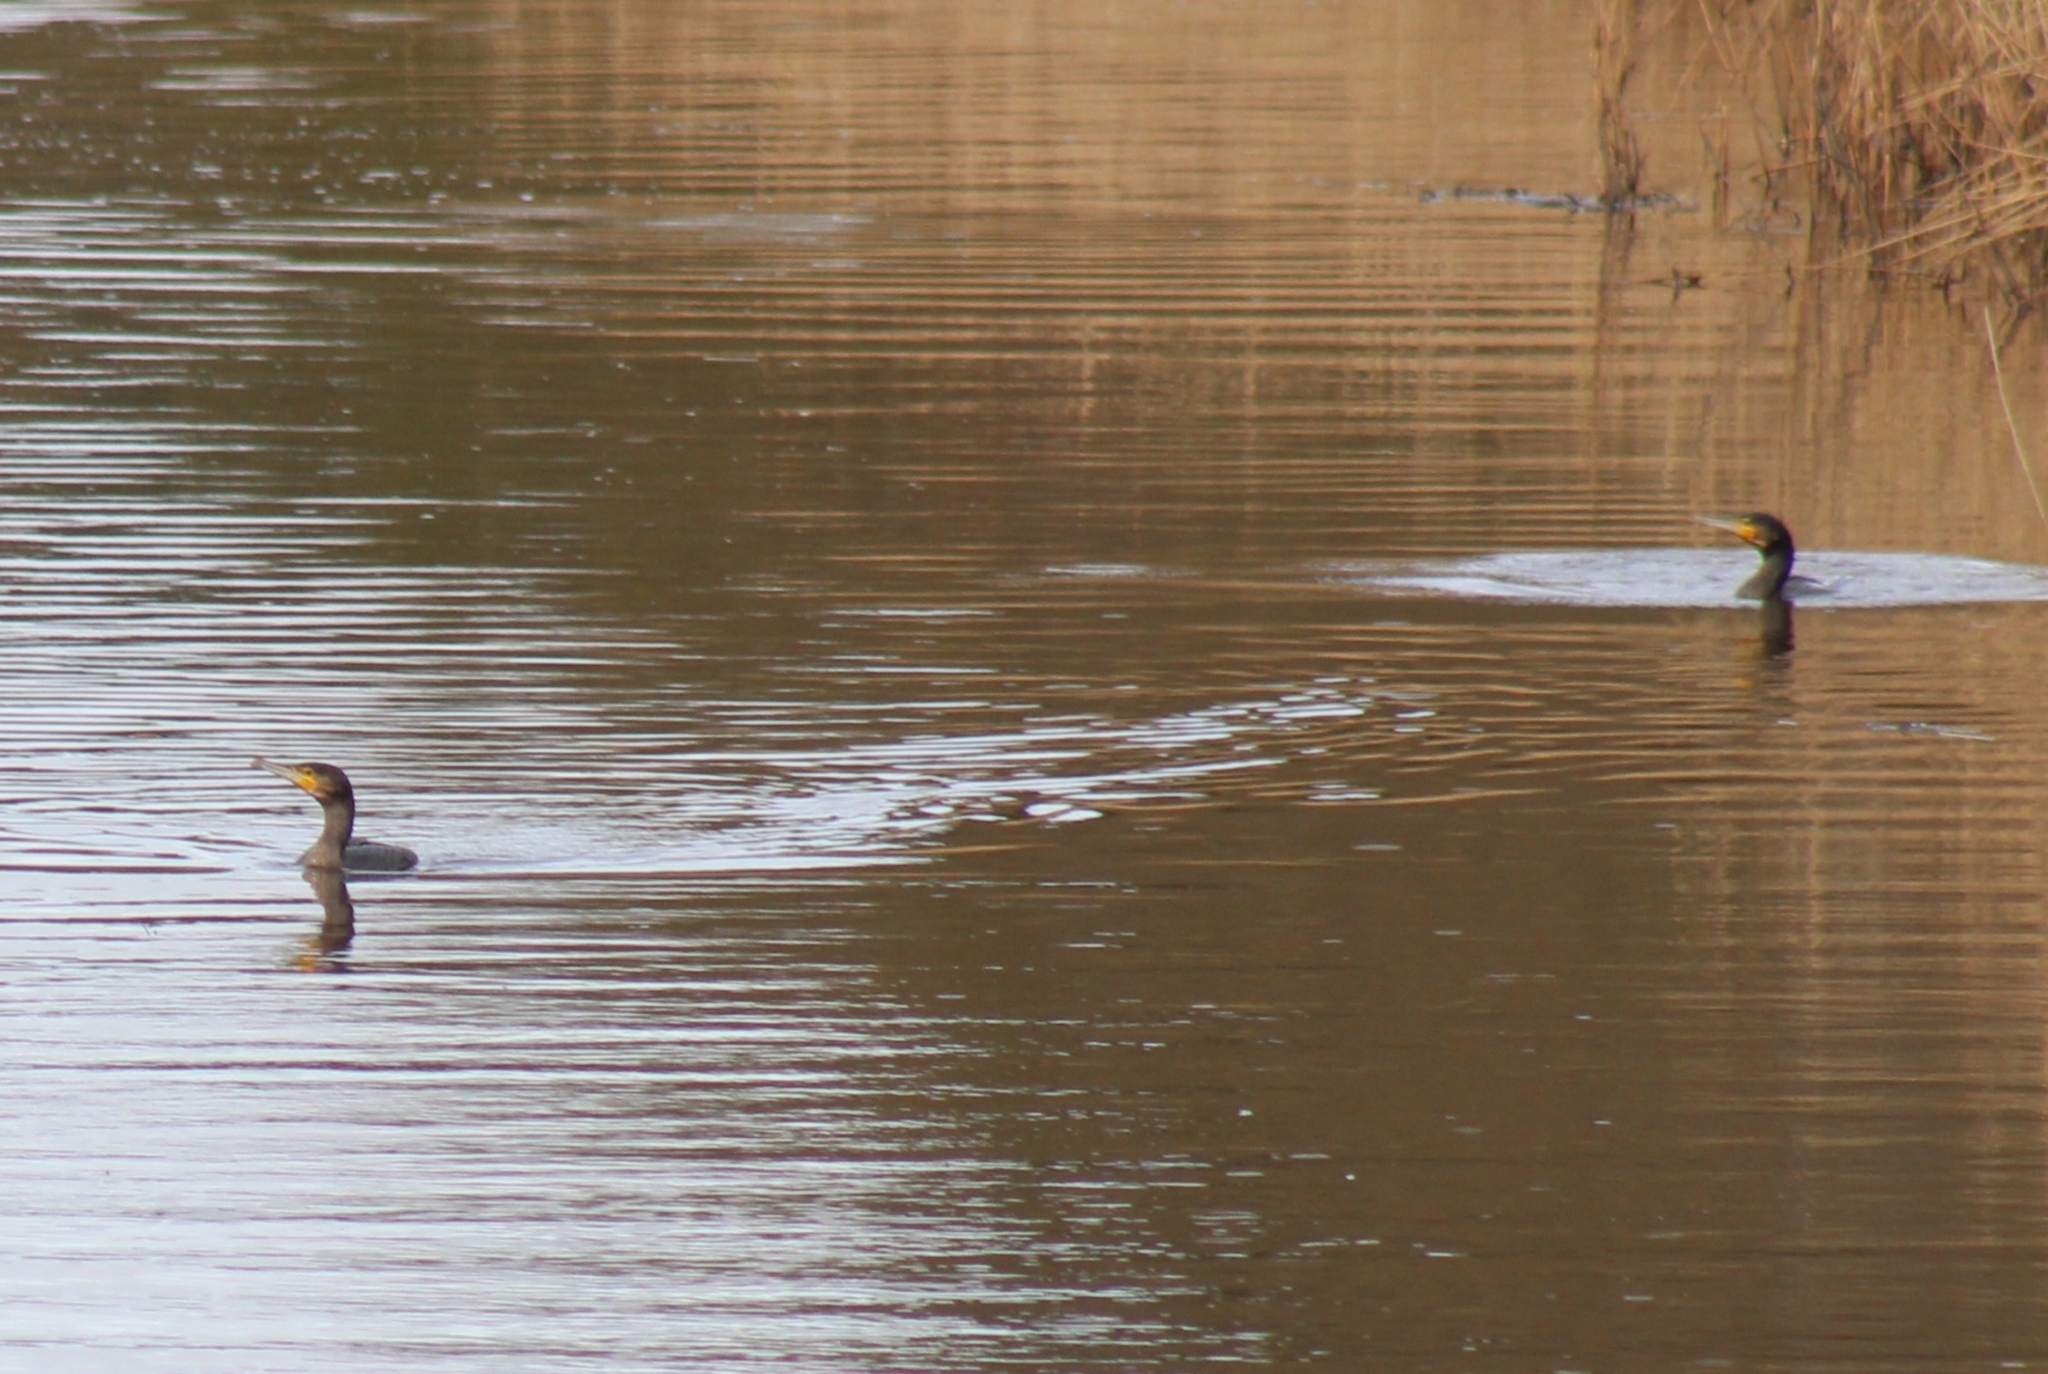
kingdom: Animalia
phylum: Chordata
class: Aves
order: Suliformes
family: Phalacrocoracidae
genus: Phalacrocorax
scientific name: Phalacrocorax carbo
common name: Great cormorant
